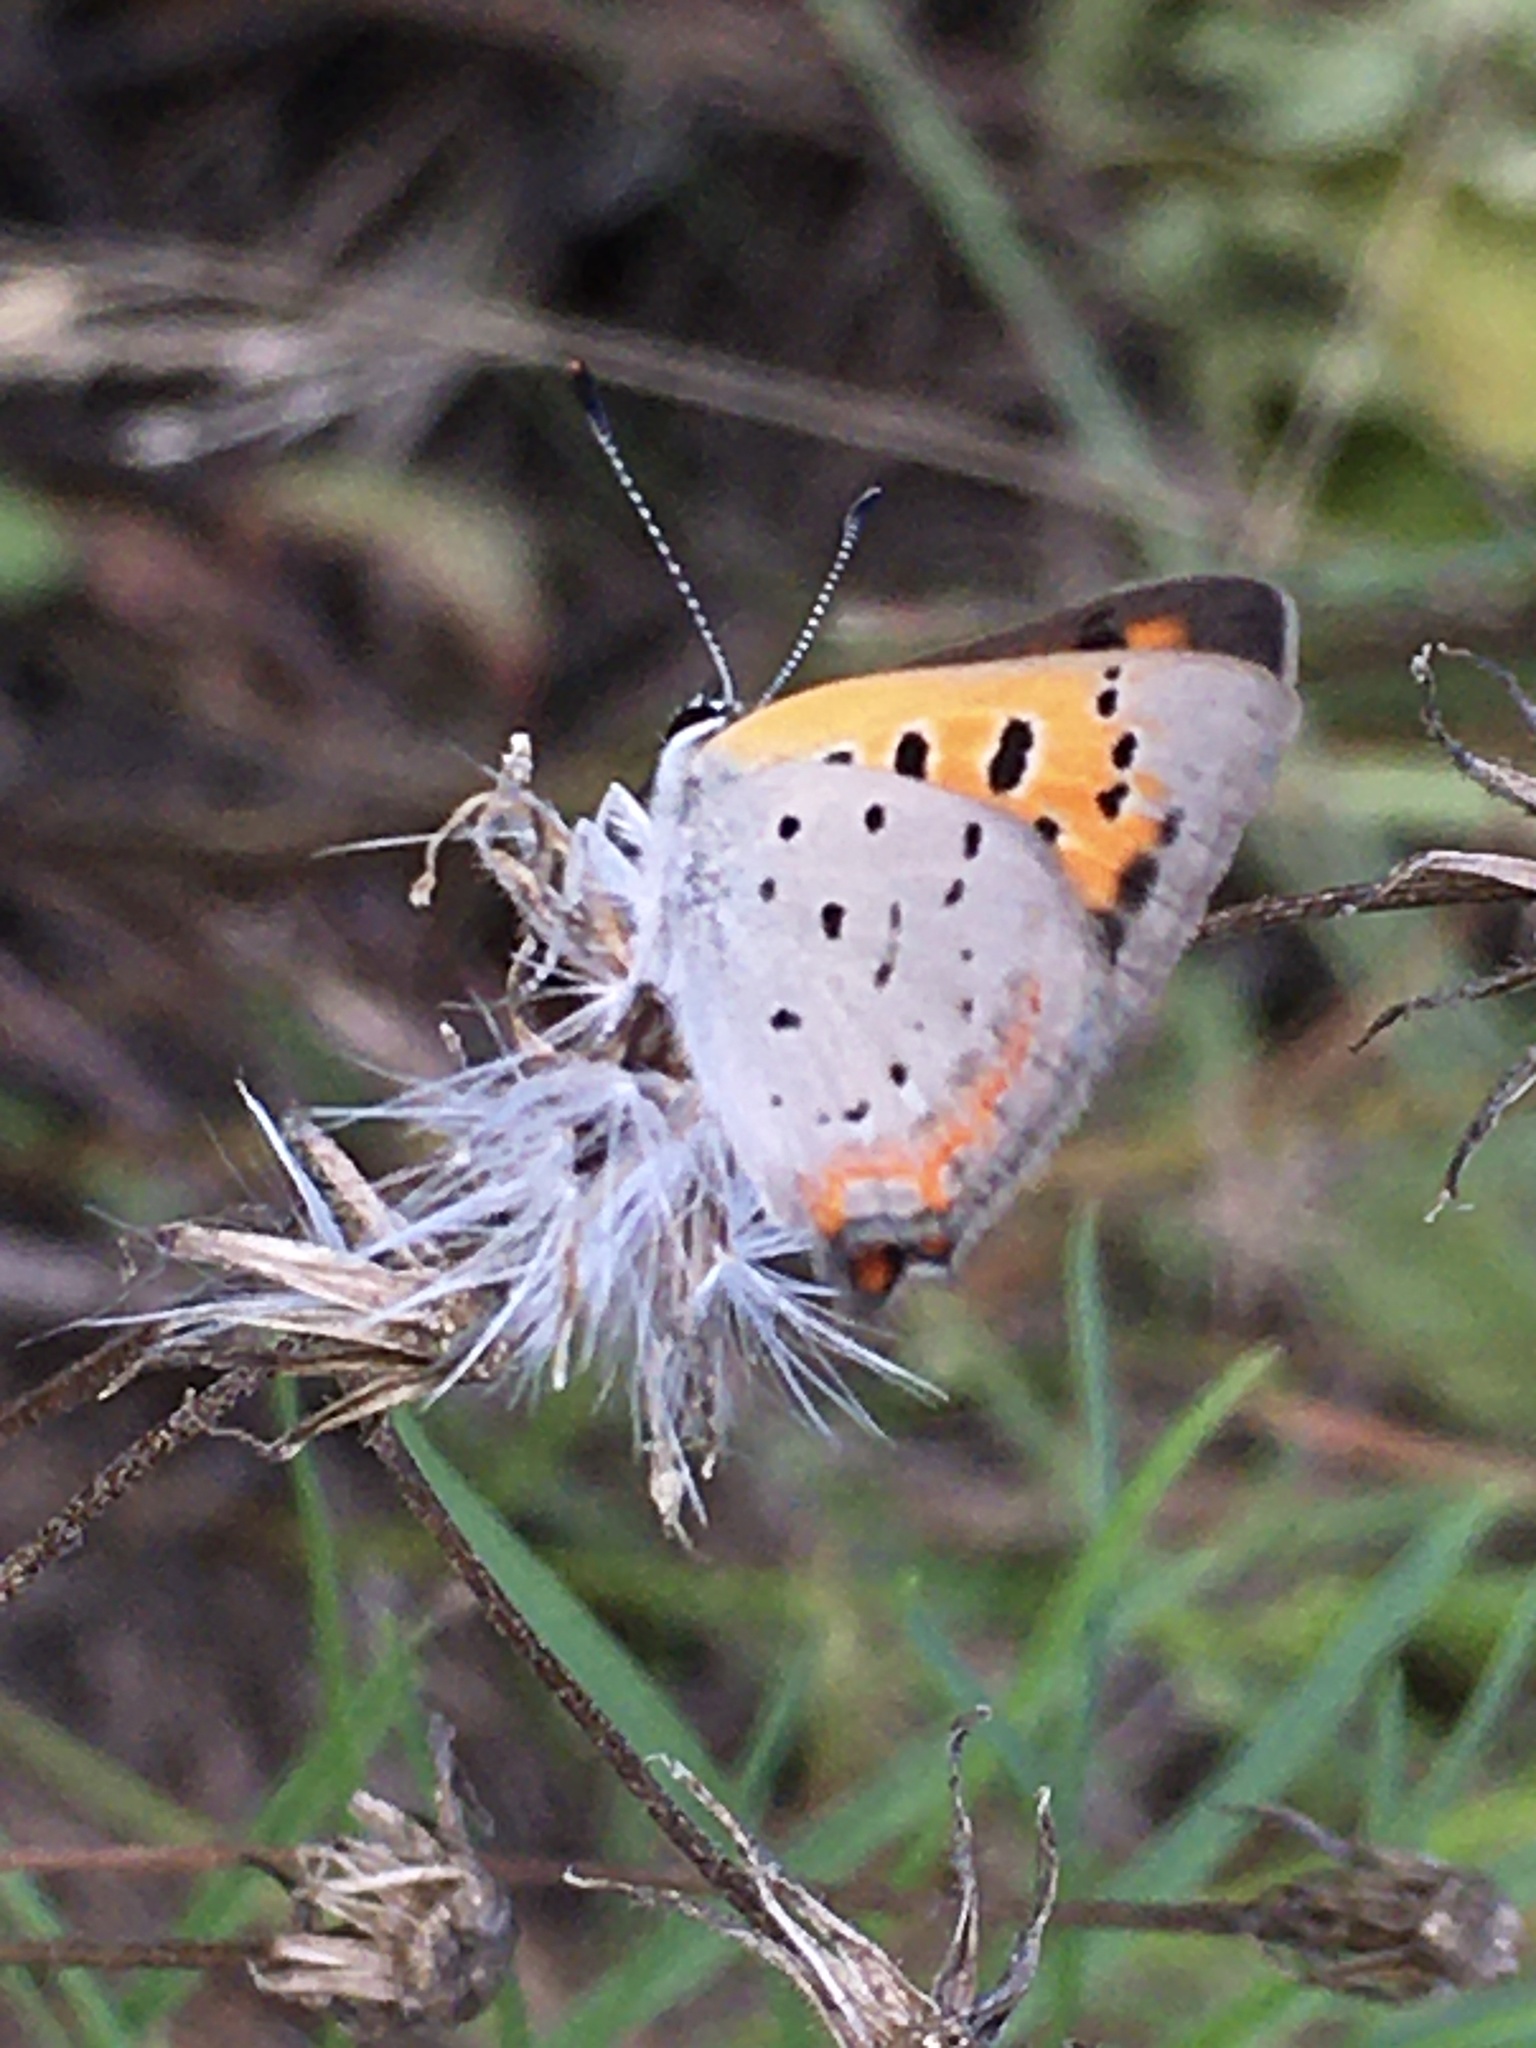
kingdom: Animalia
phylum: Arthropoda
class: Insecta
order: Lepidoptera
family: Lycaenidae
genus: Lycaena
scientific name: Lycaena hypophlaeas
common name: American copper
